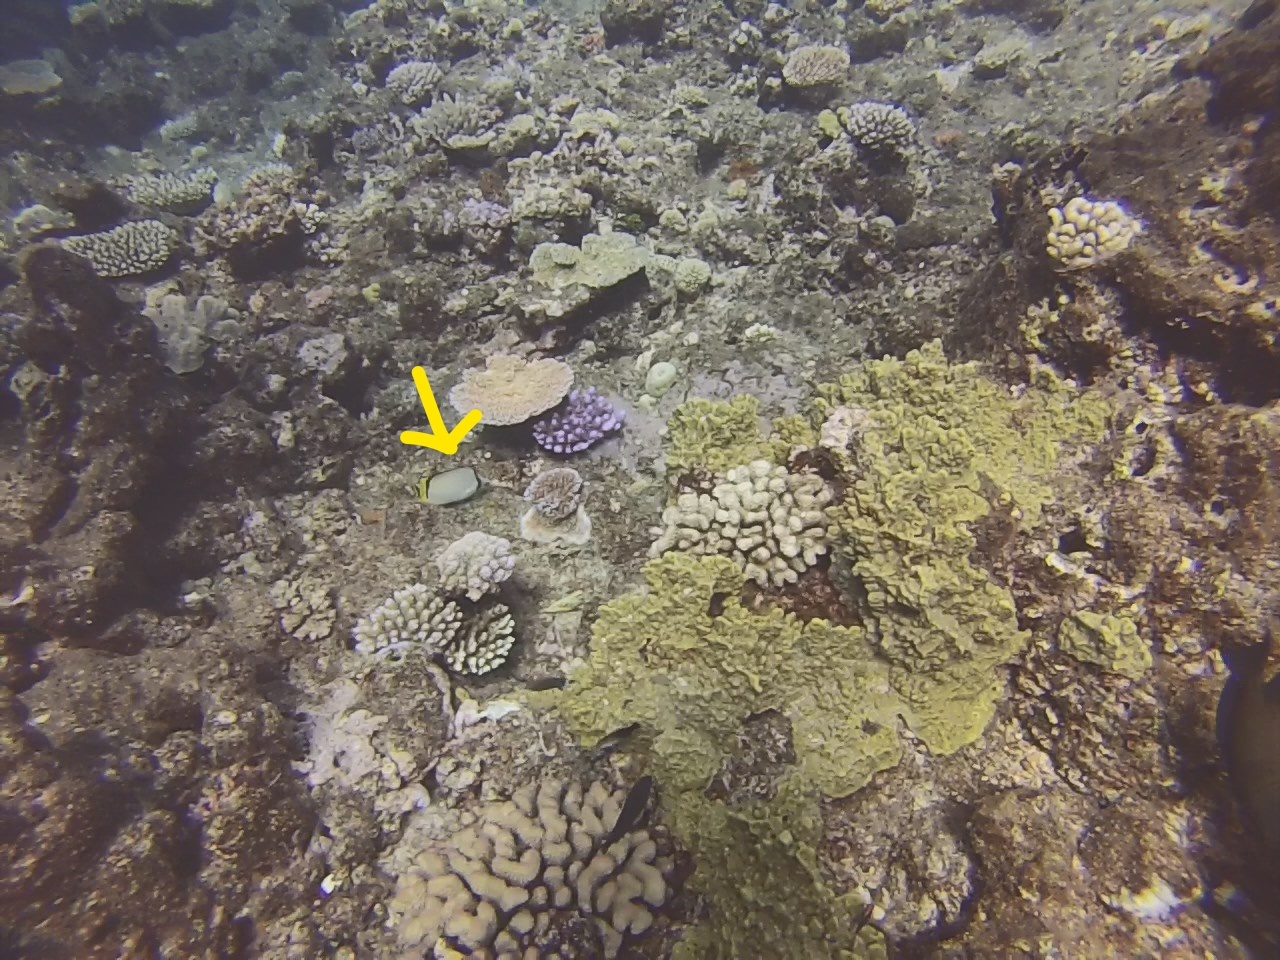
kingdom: Animalia
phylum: Chordata
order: Perciformes
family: Chaetodontidae
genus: Chaetodon
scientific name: Chaetodon vagabundus
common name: Vagabond butterflyfish
